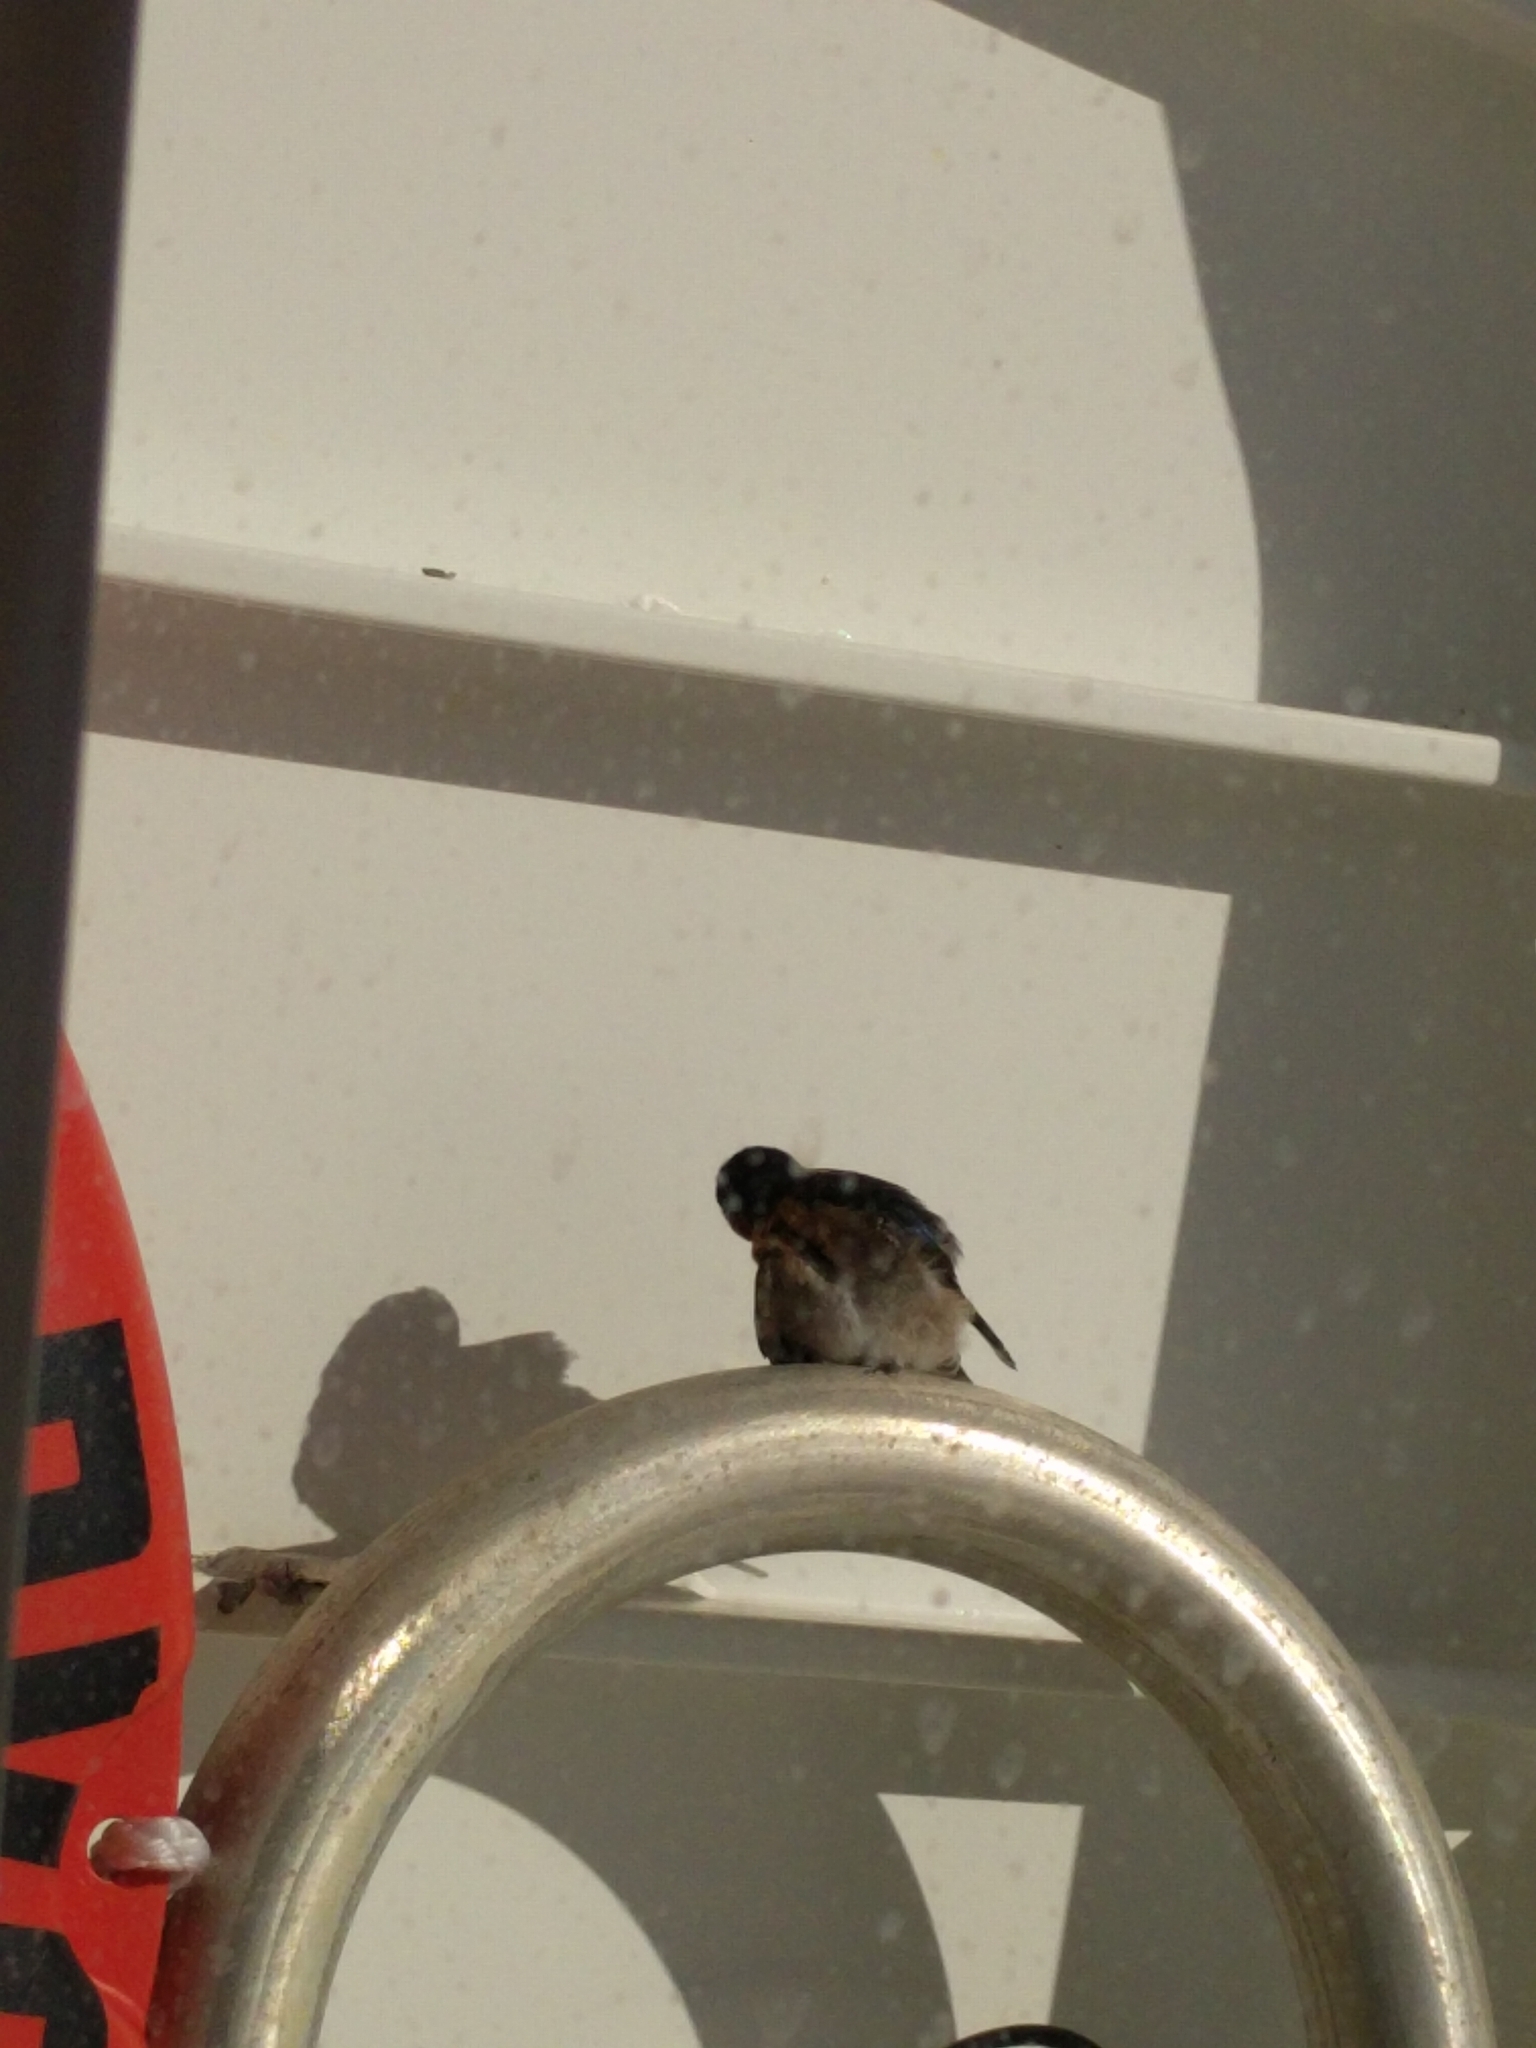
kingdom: Animalia
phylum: Chordata
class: Aves
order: Passeriformes
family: Hirundinidae
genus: Hirundo
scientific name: Hirundo neoxena
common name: Welcome swallow
